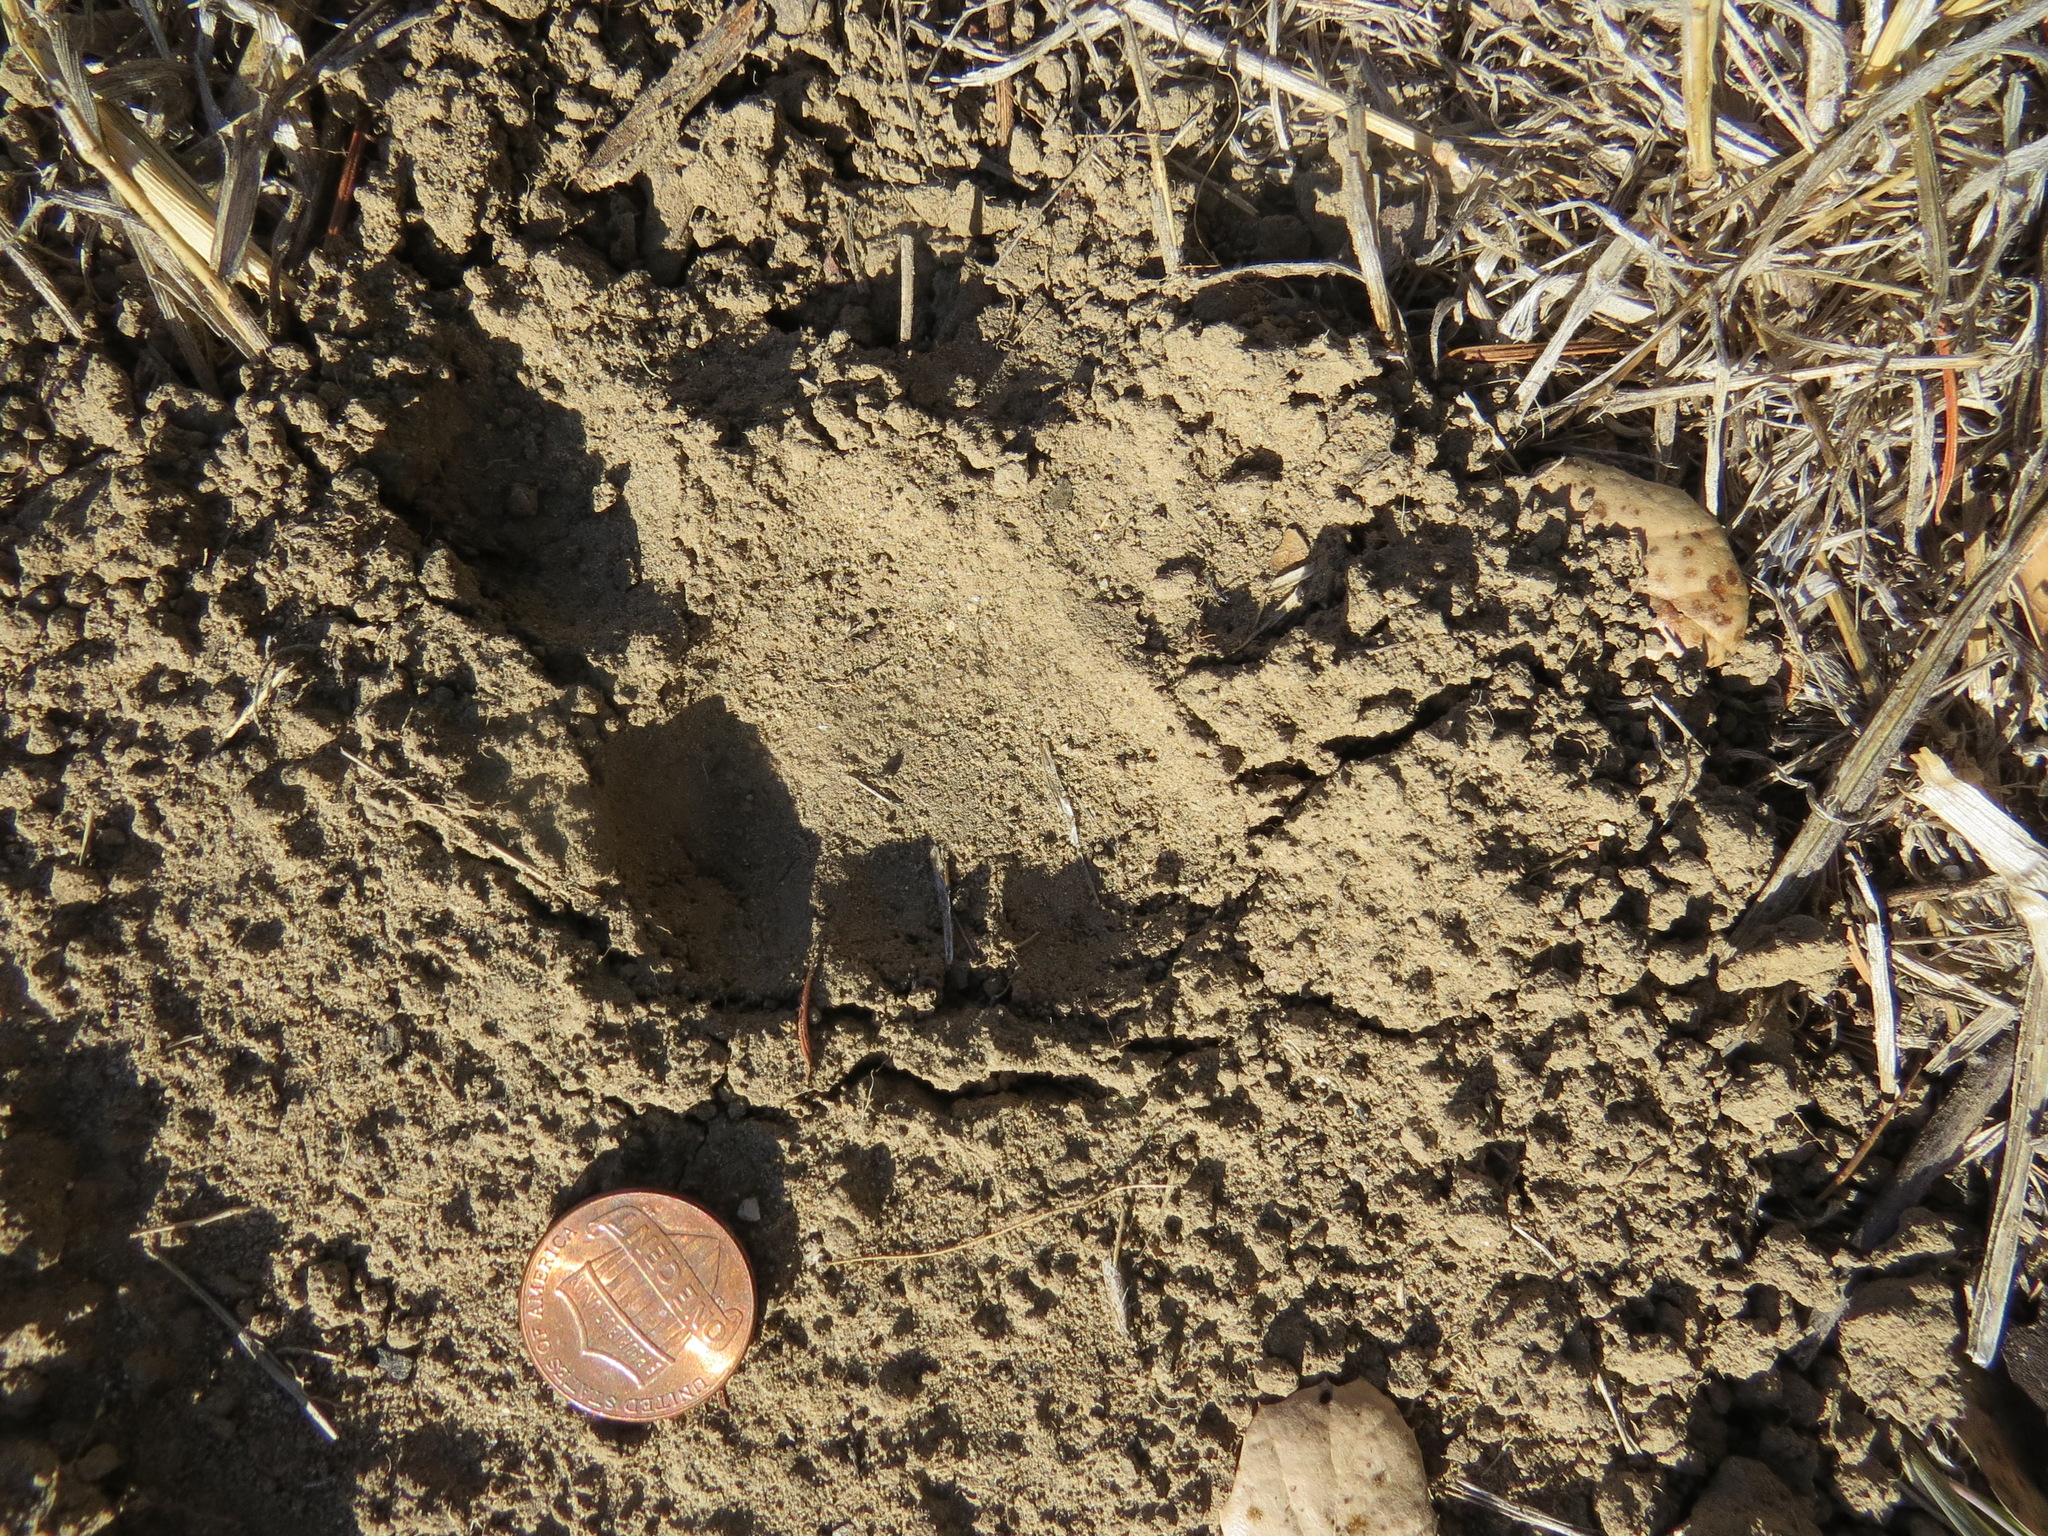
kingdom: Animalia
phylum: Chordata
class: Mammalia
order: Carnivora
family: Felidae
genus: Puma
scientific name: Puma concolor
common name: Puma
